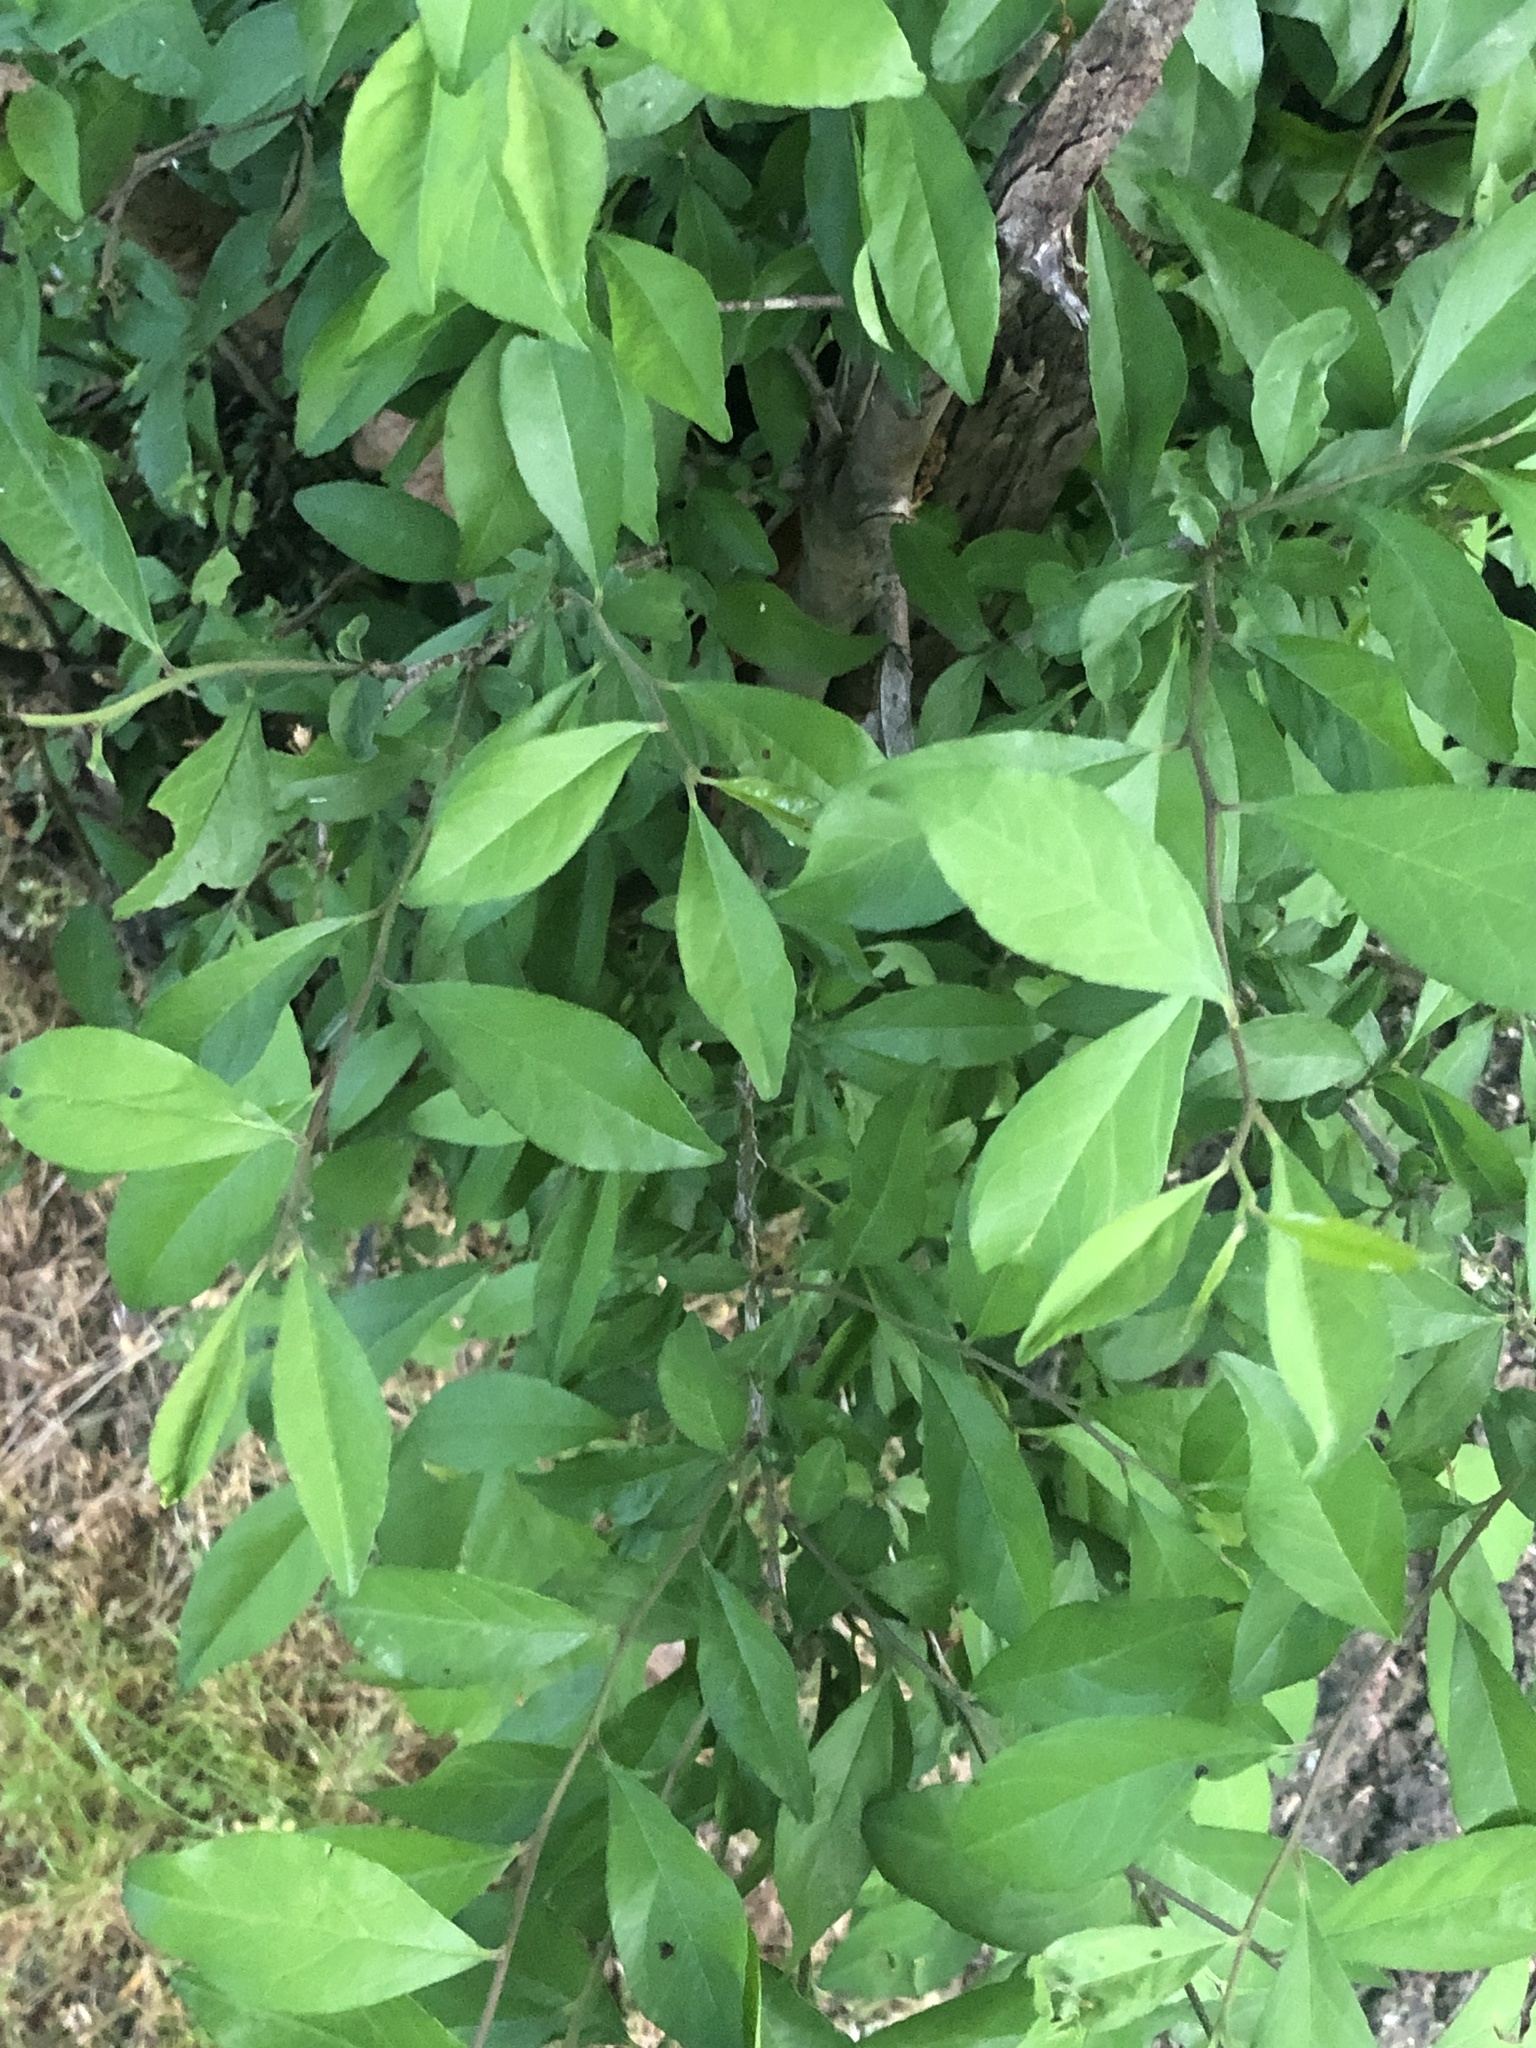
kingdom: Plantae
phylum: Tracheophyta
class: Magnoliopsida
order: Aquifoliales
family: Aquifoliaceae
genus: Ilex
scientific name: Ilex decidua
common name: Possum-haw
